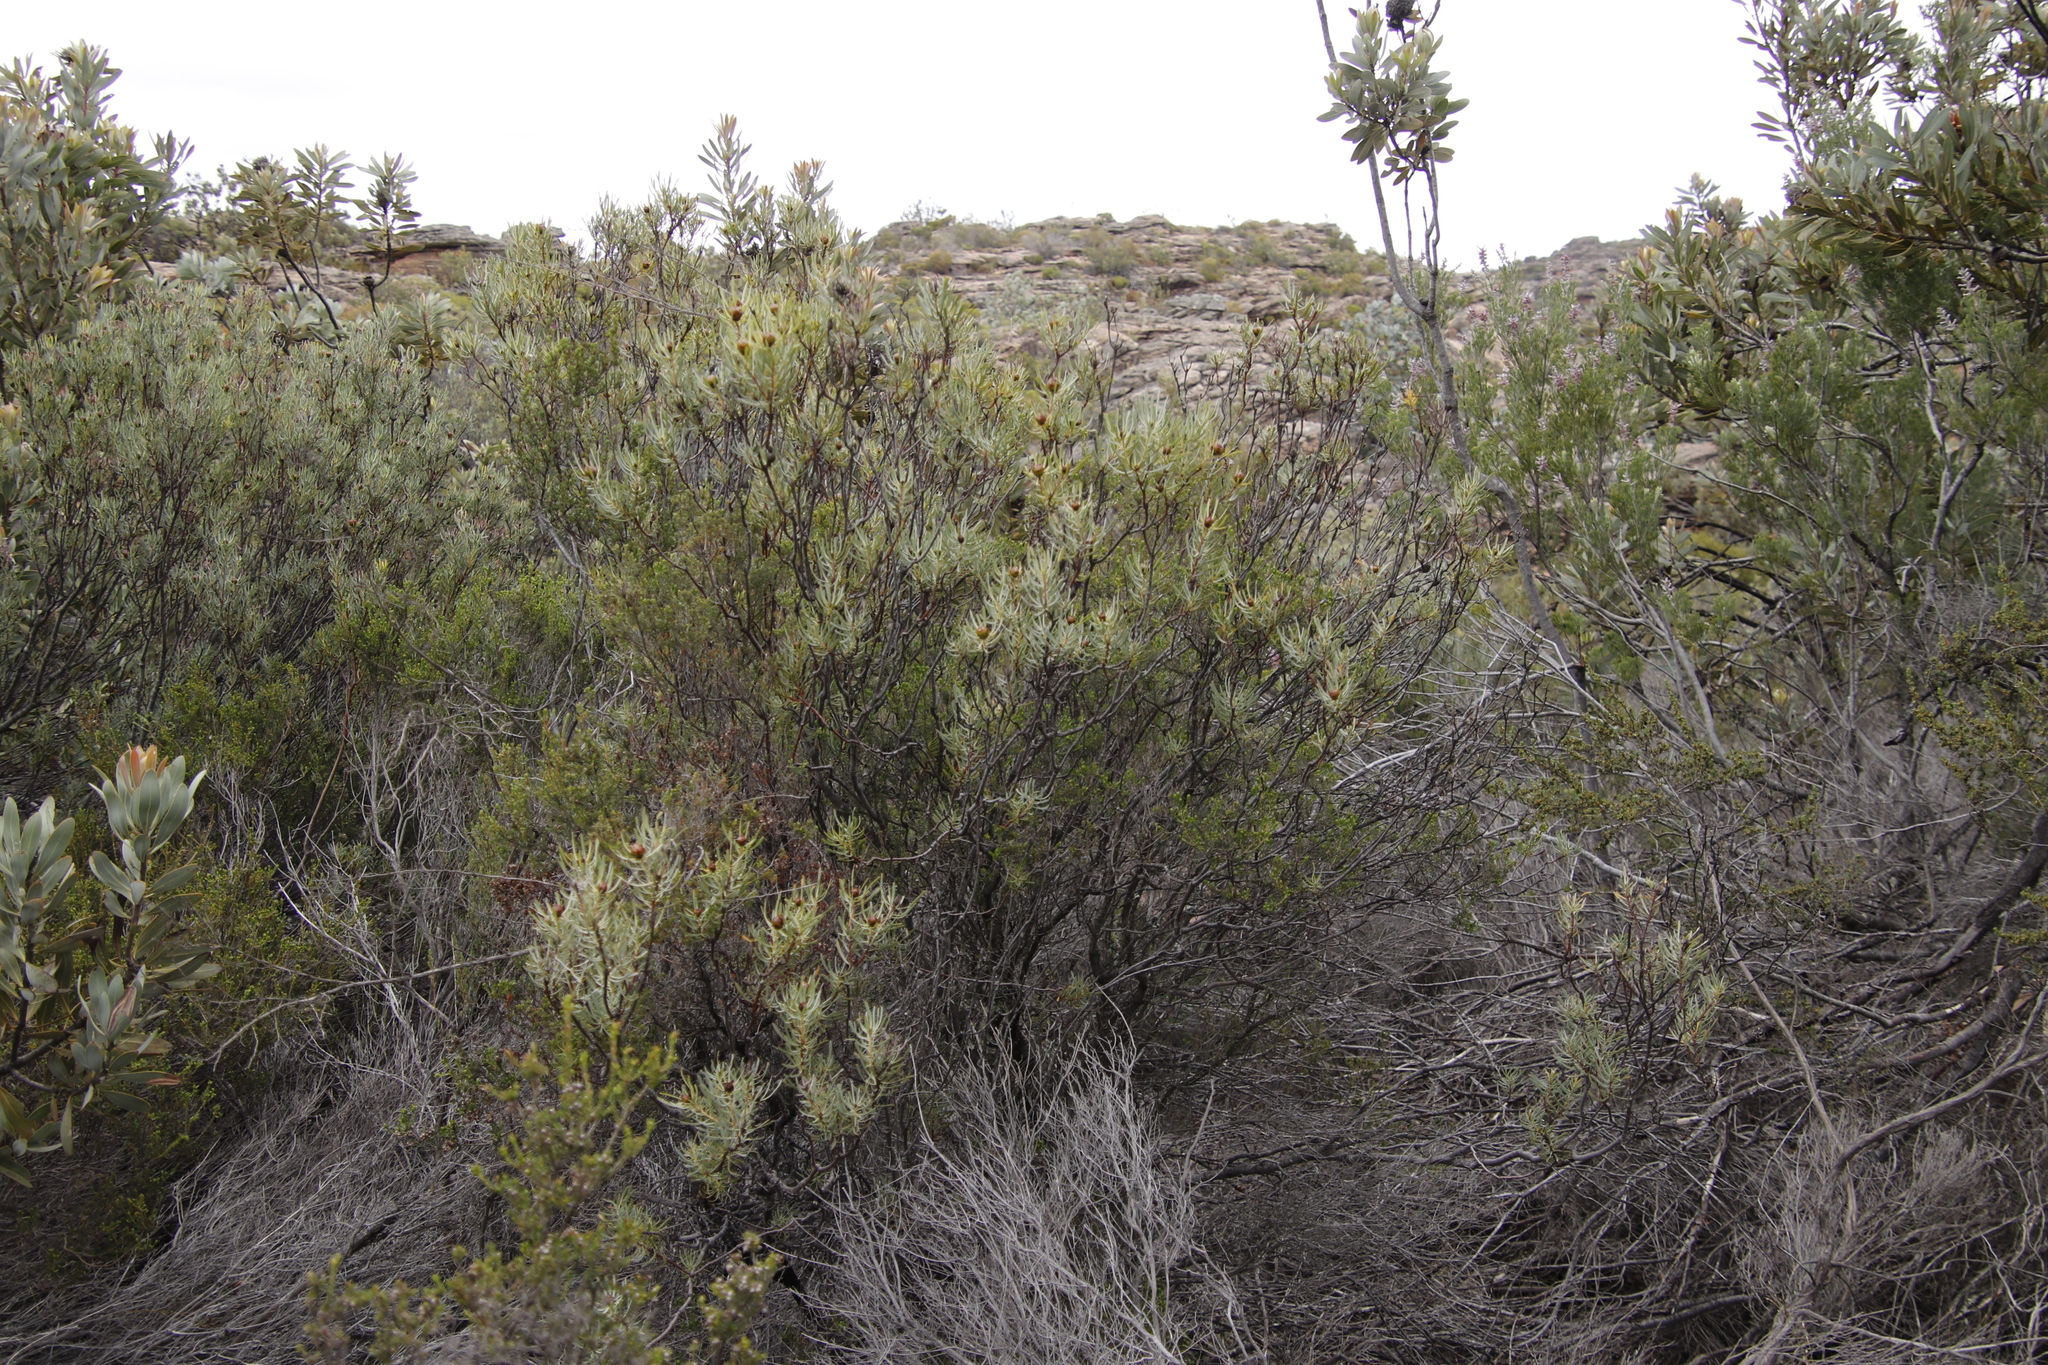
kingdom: Plantae
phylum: Tracheophyta
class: Magnoliopsida
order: Proteales
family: Proteaceae
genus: Leucadendron
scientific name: Leucadendron meyerianum
